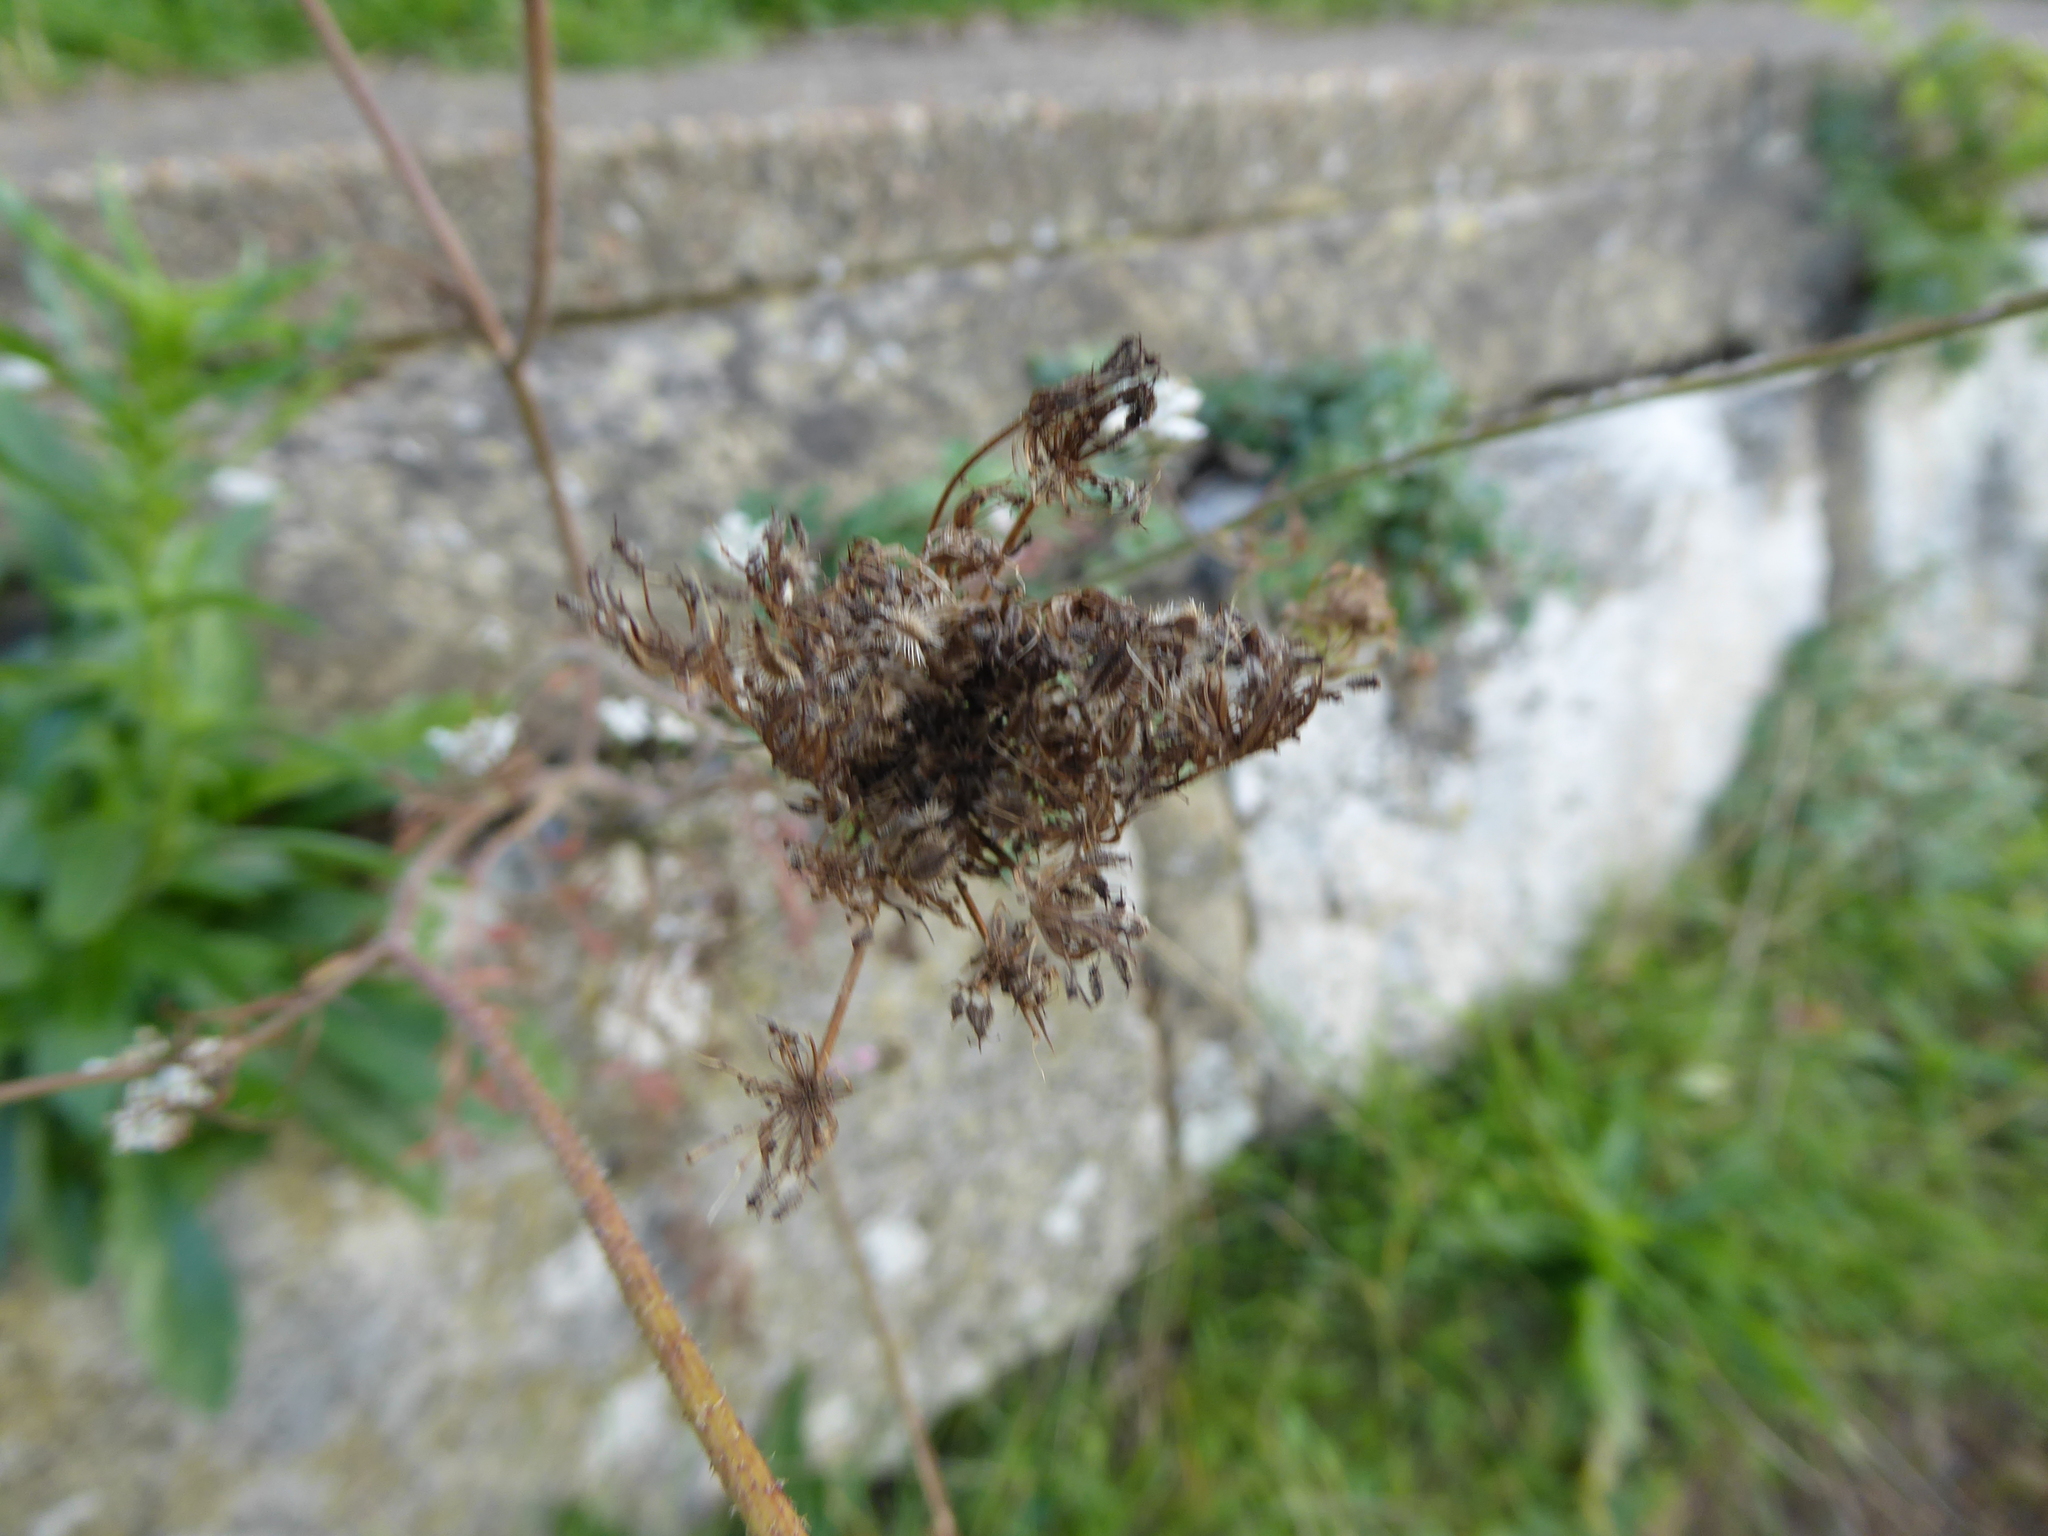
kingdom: Plantae
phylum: Tracheophyta
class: Magnoliopsida
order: Apiales
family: Apiaceae
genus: Daucus
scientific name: Daucus carota
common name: Wild carrot
